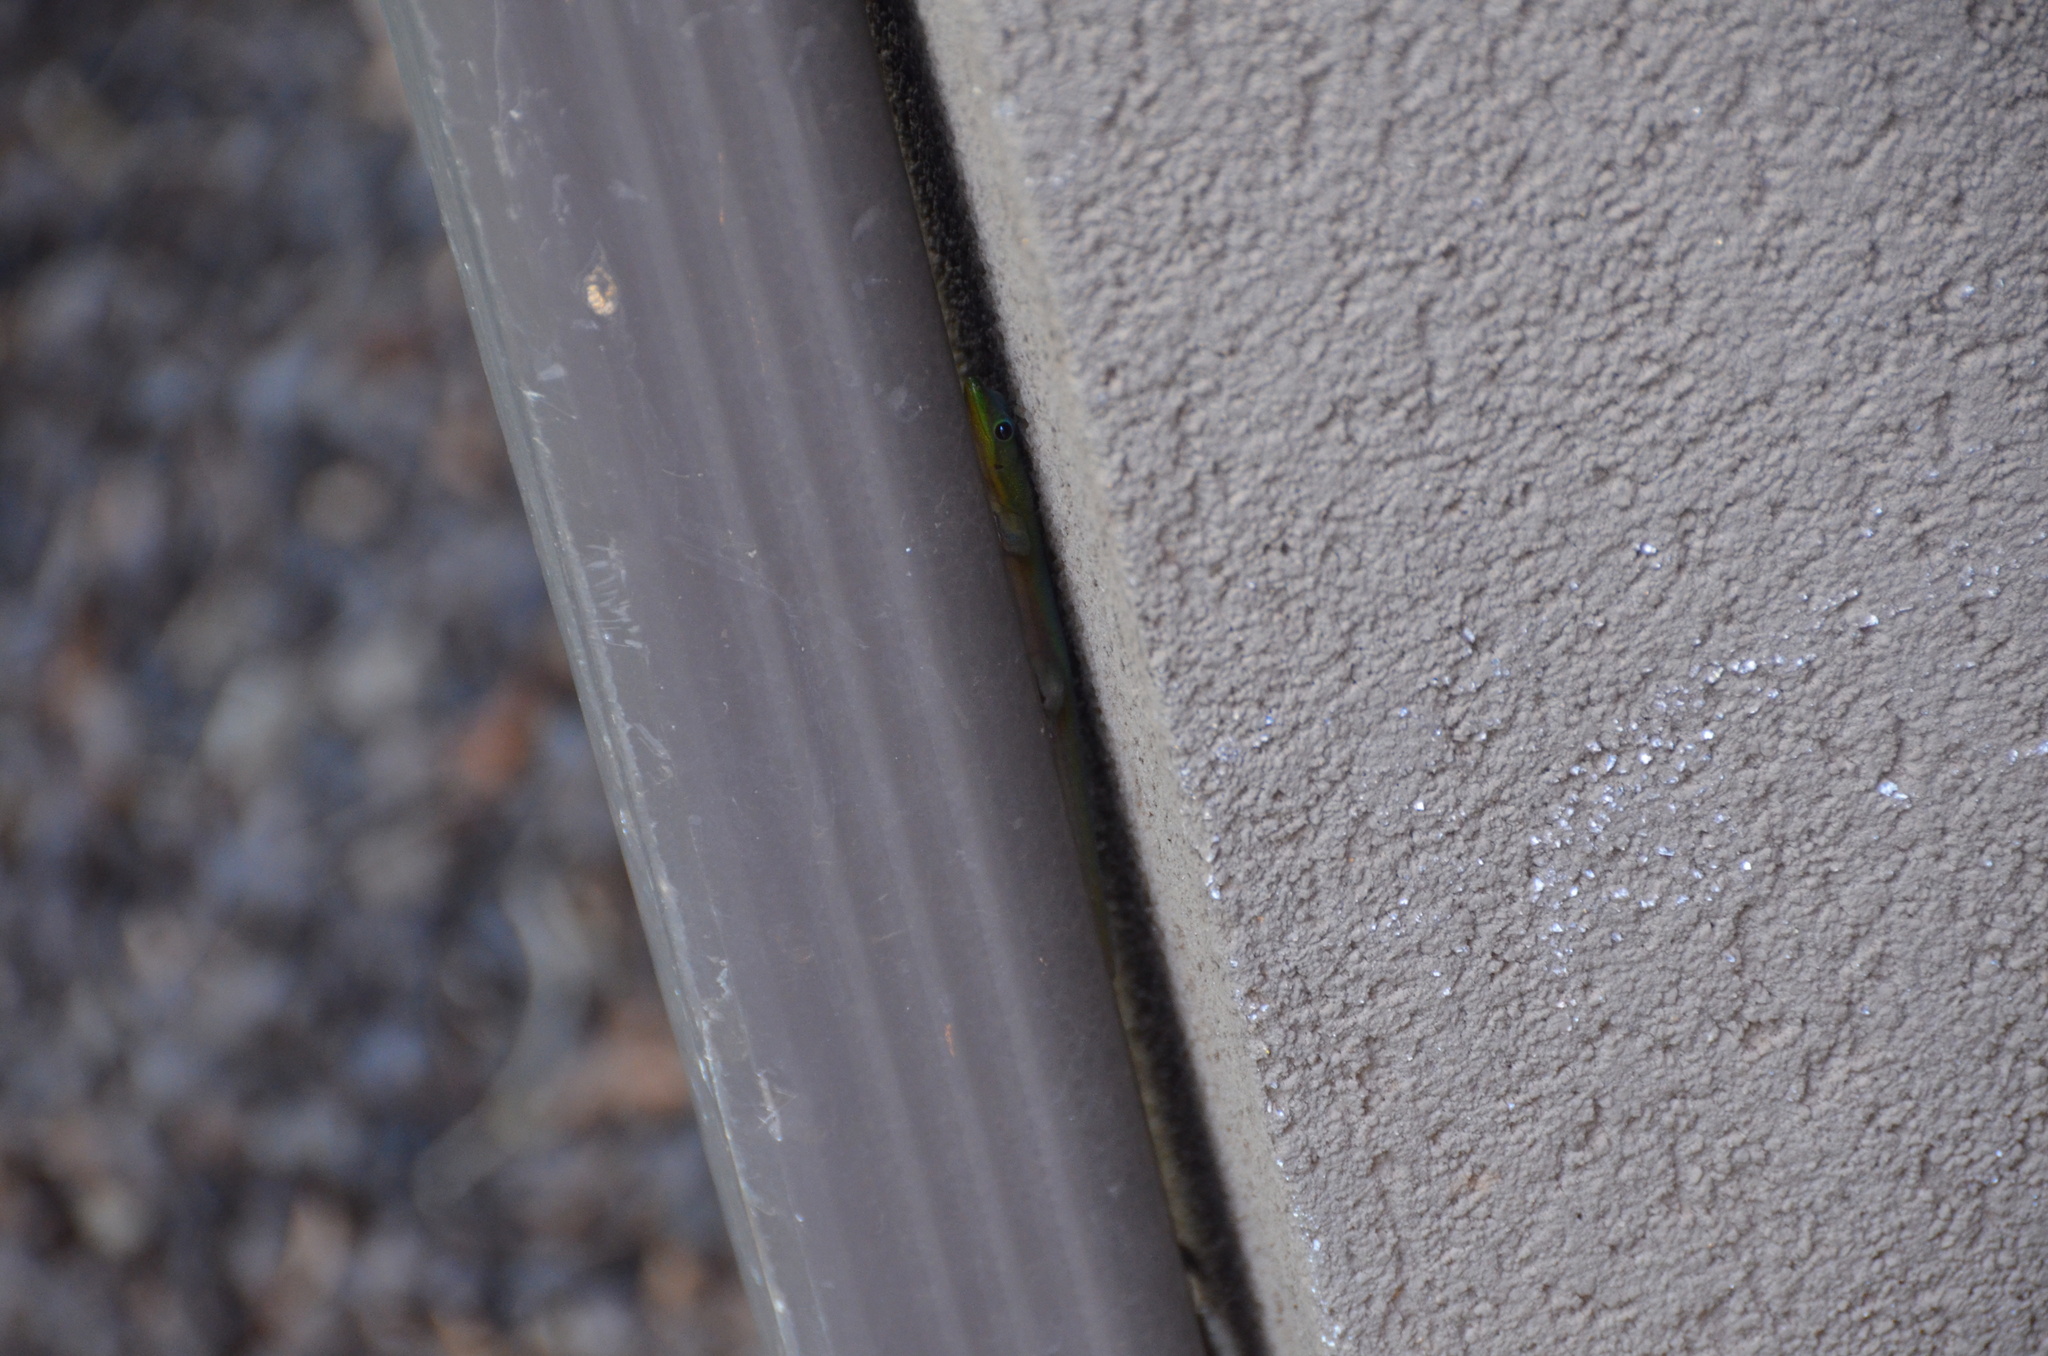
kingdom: Animalia
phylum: Chordata
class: Squamata
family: Gekkonidae
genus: Phelsuma
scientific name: Phelsuma laticauda
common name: Gold dust day gecko
